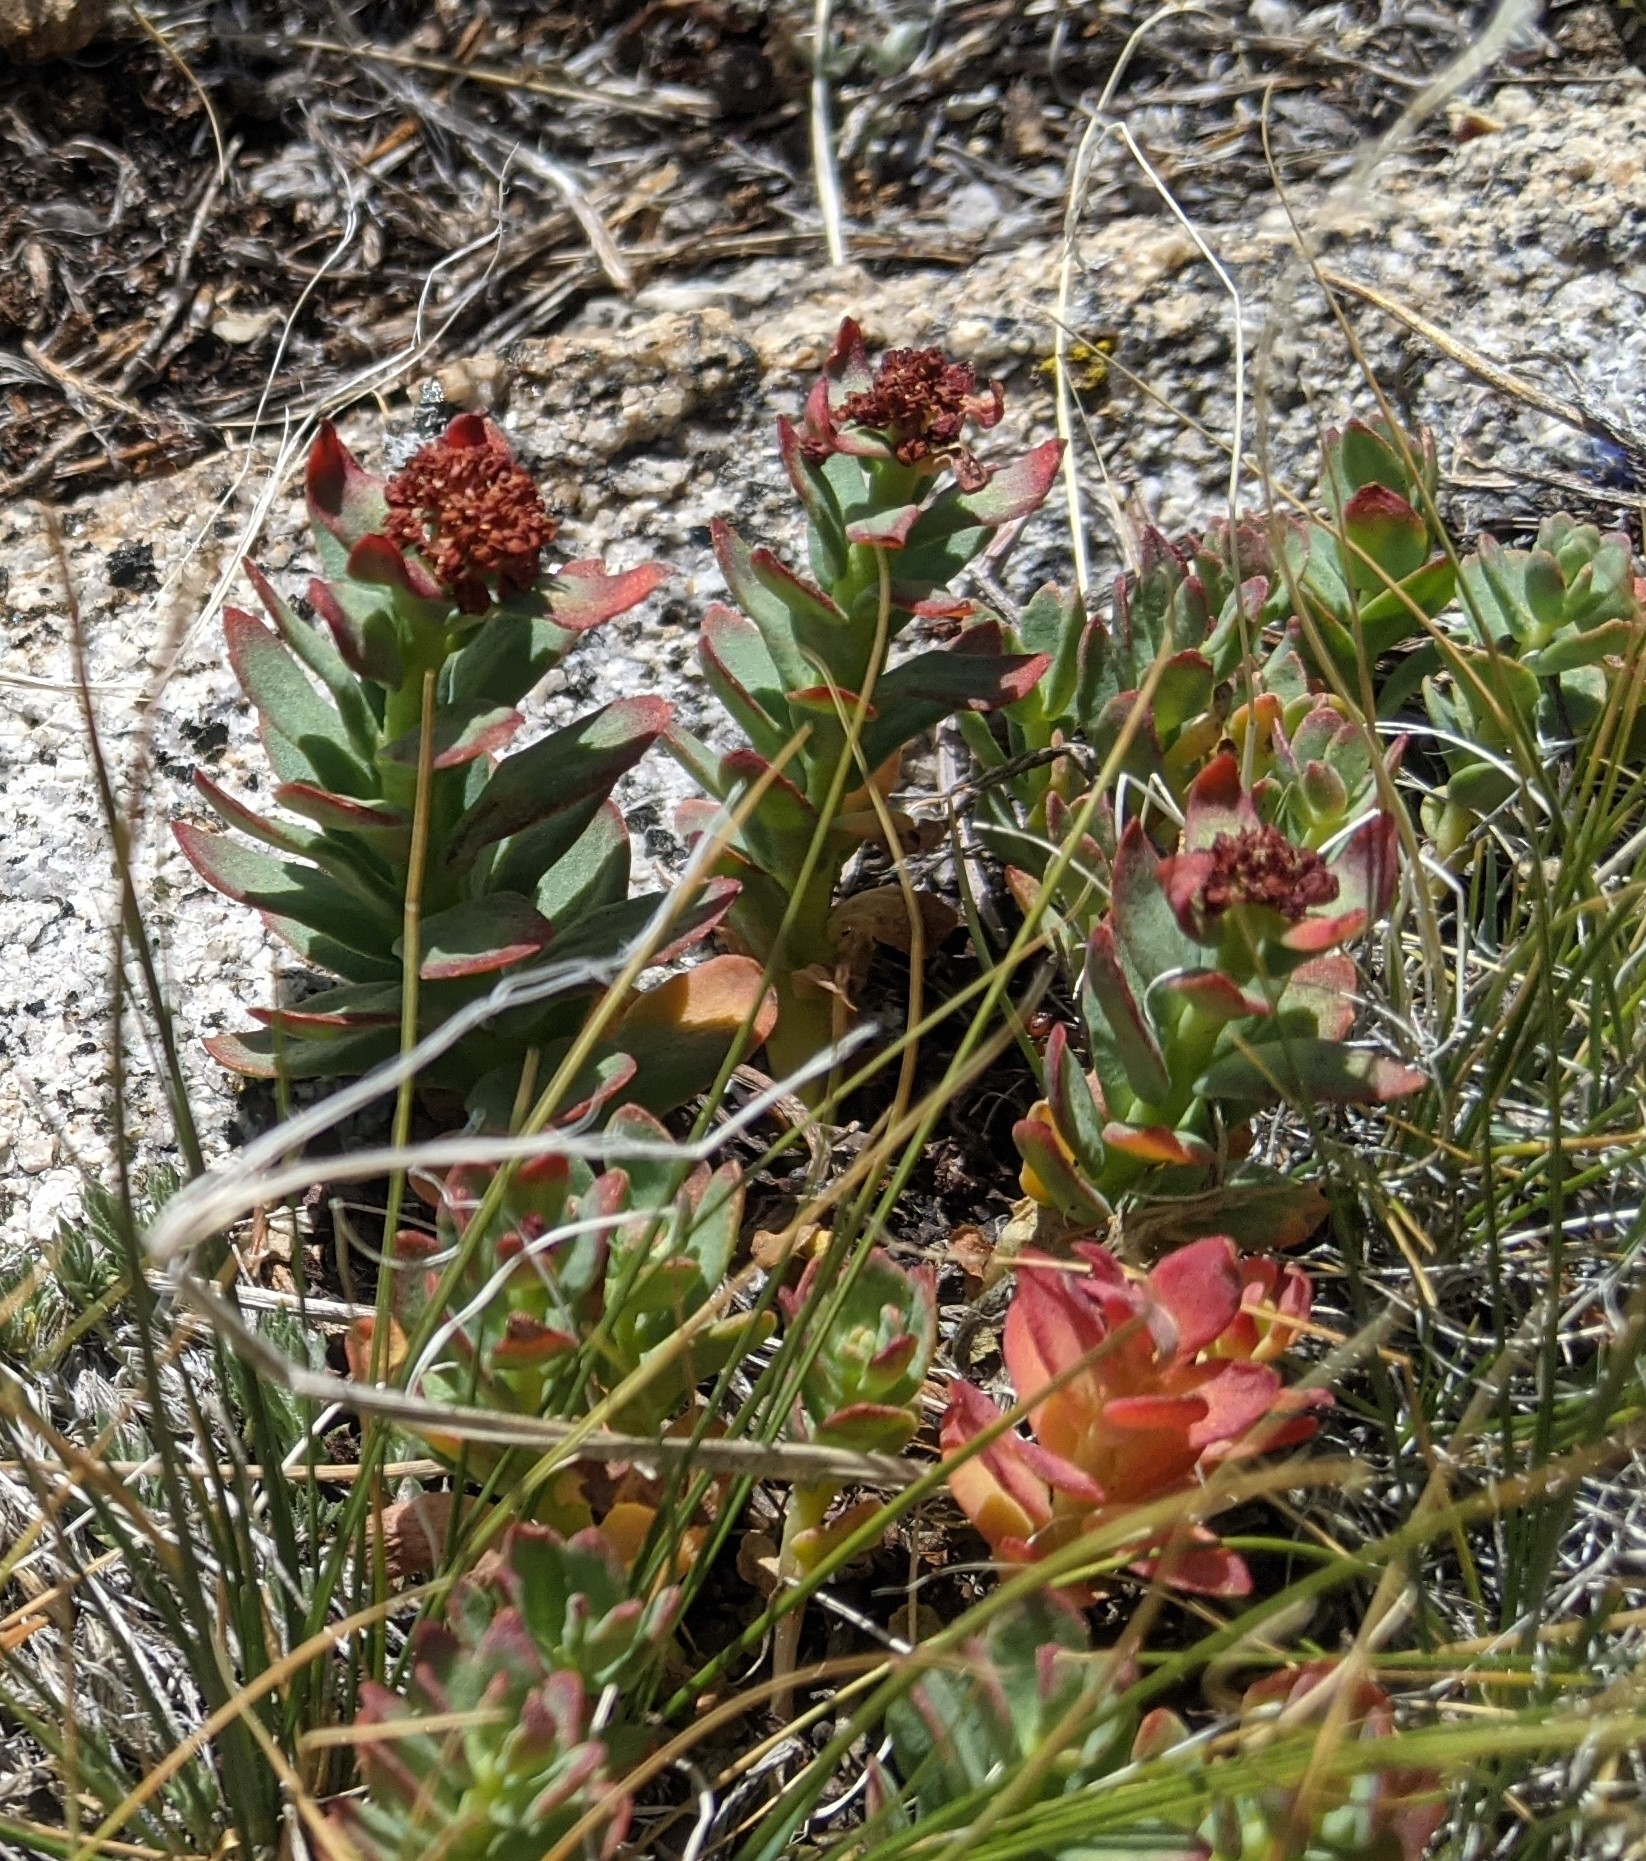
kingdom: Plantae
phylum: Tracheophyta
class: Magnoliopsida
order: Saxifragales
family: Crassulaceae
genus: Rhodiola
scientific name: Rhodiola integrifolia
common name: Western roseroot
